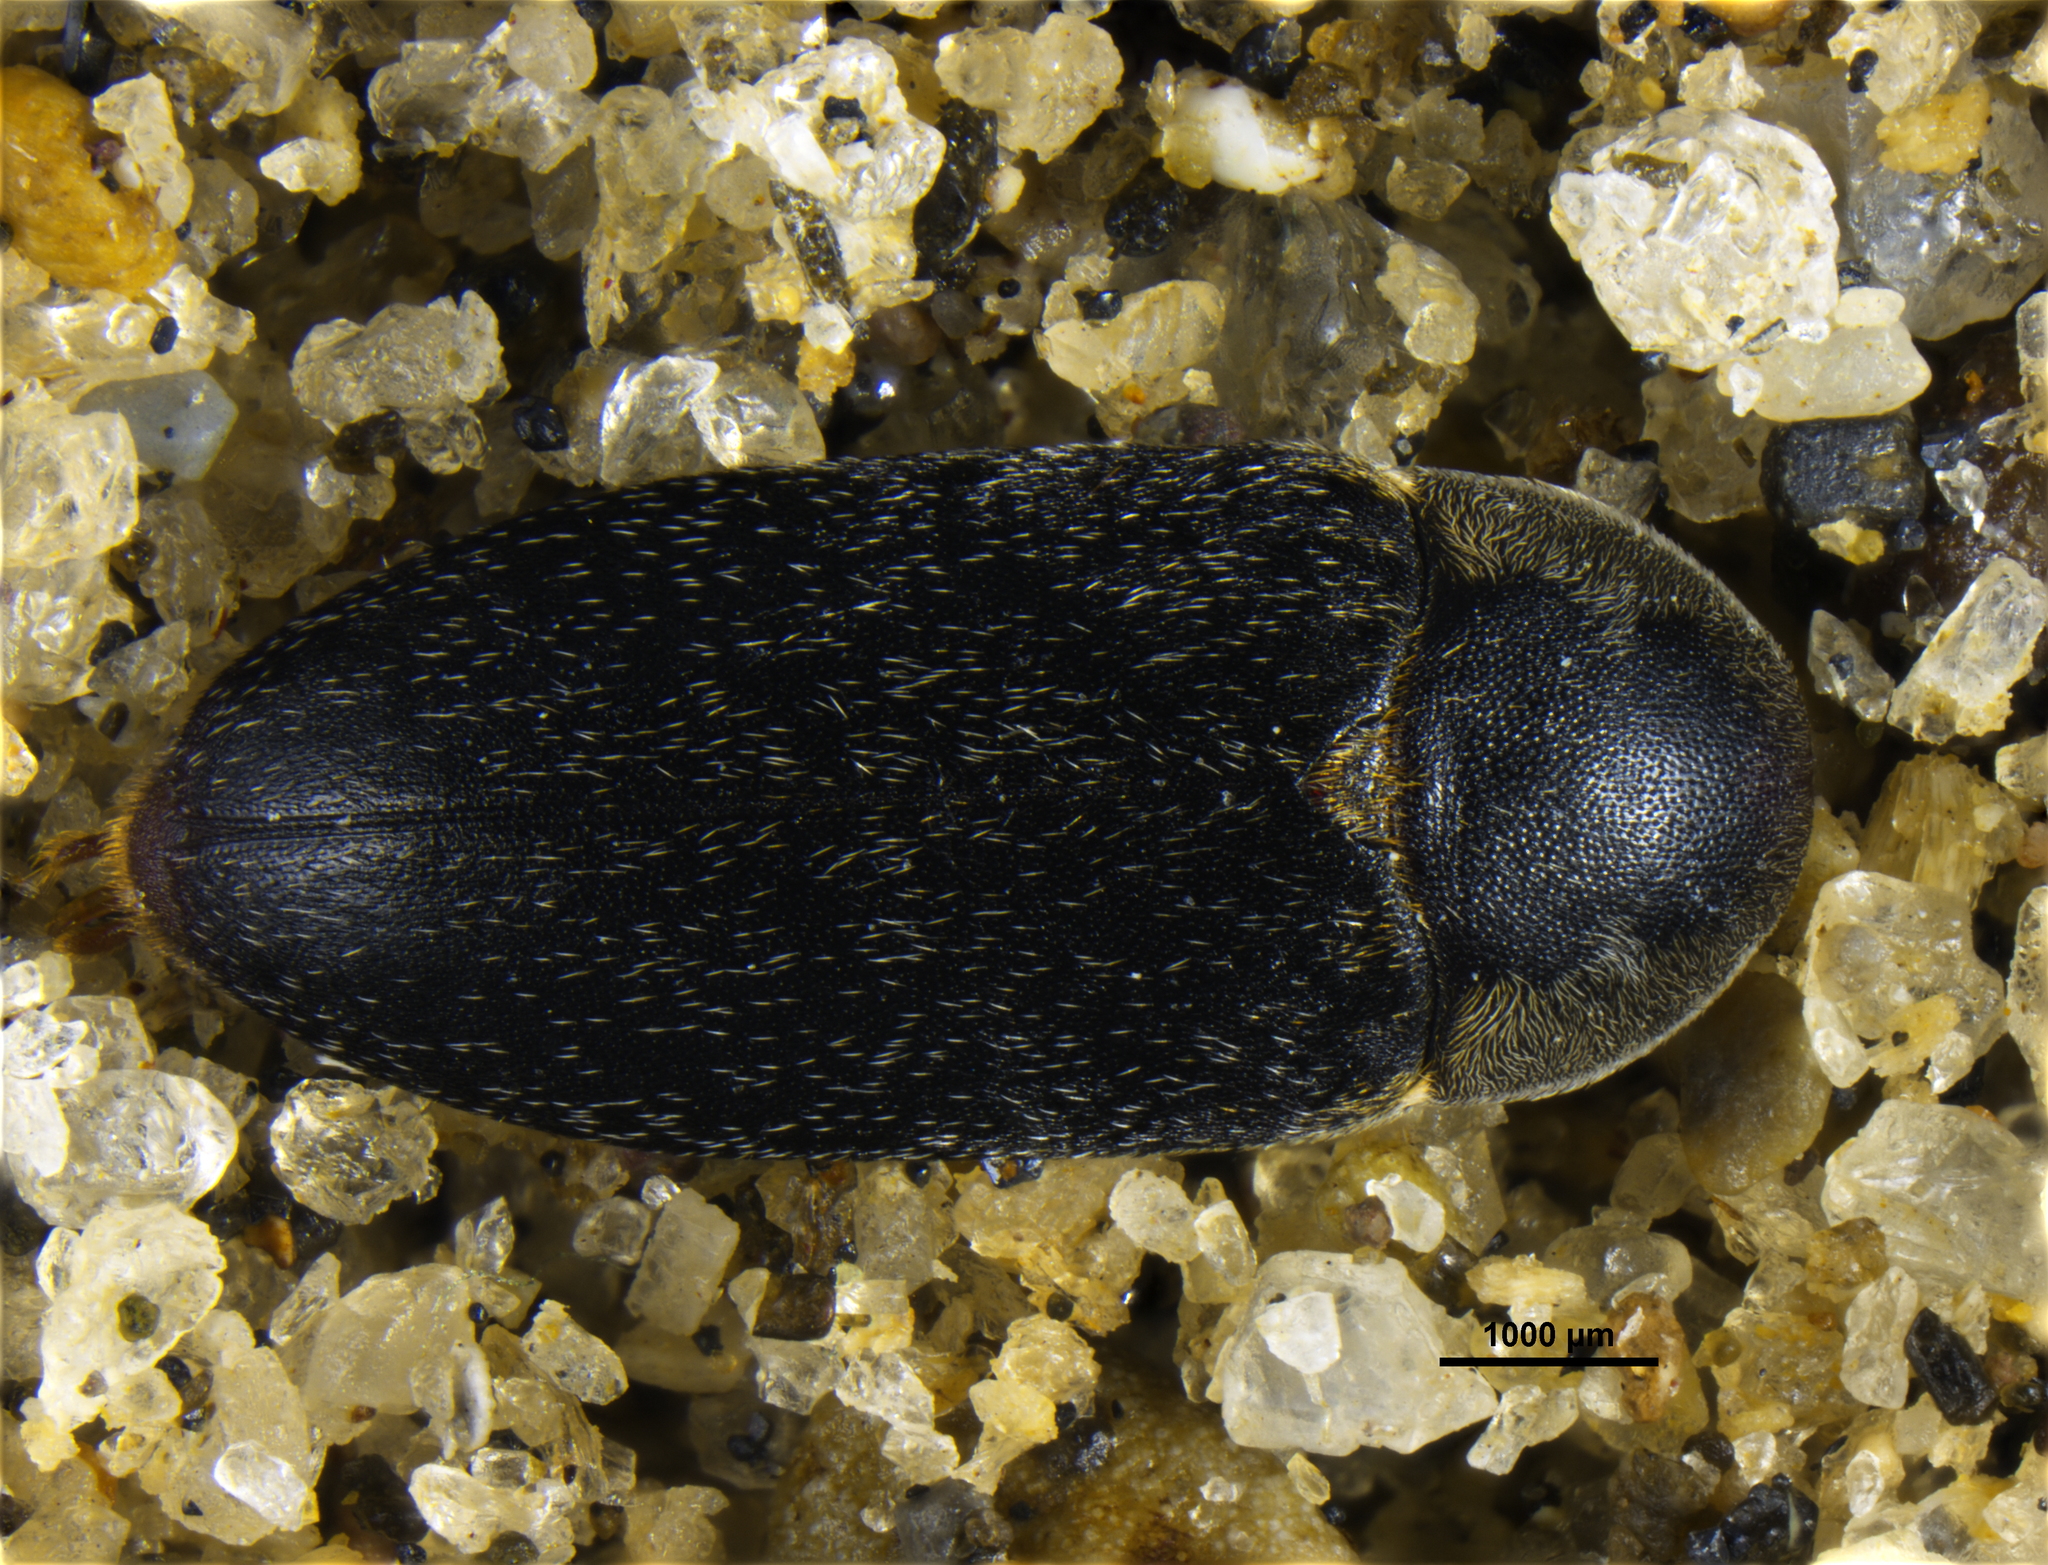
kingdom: Animalia
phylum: Arthropoda
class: Insecta
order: Coleoptera
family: Dermestidae
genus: Dermestes
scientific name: Dermestes maculatus
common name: Hide beetle
